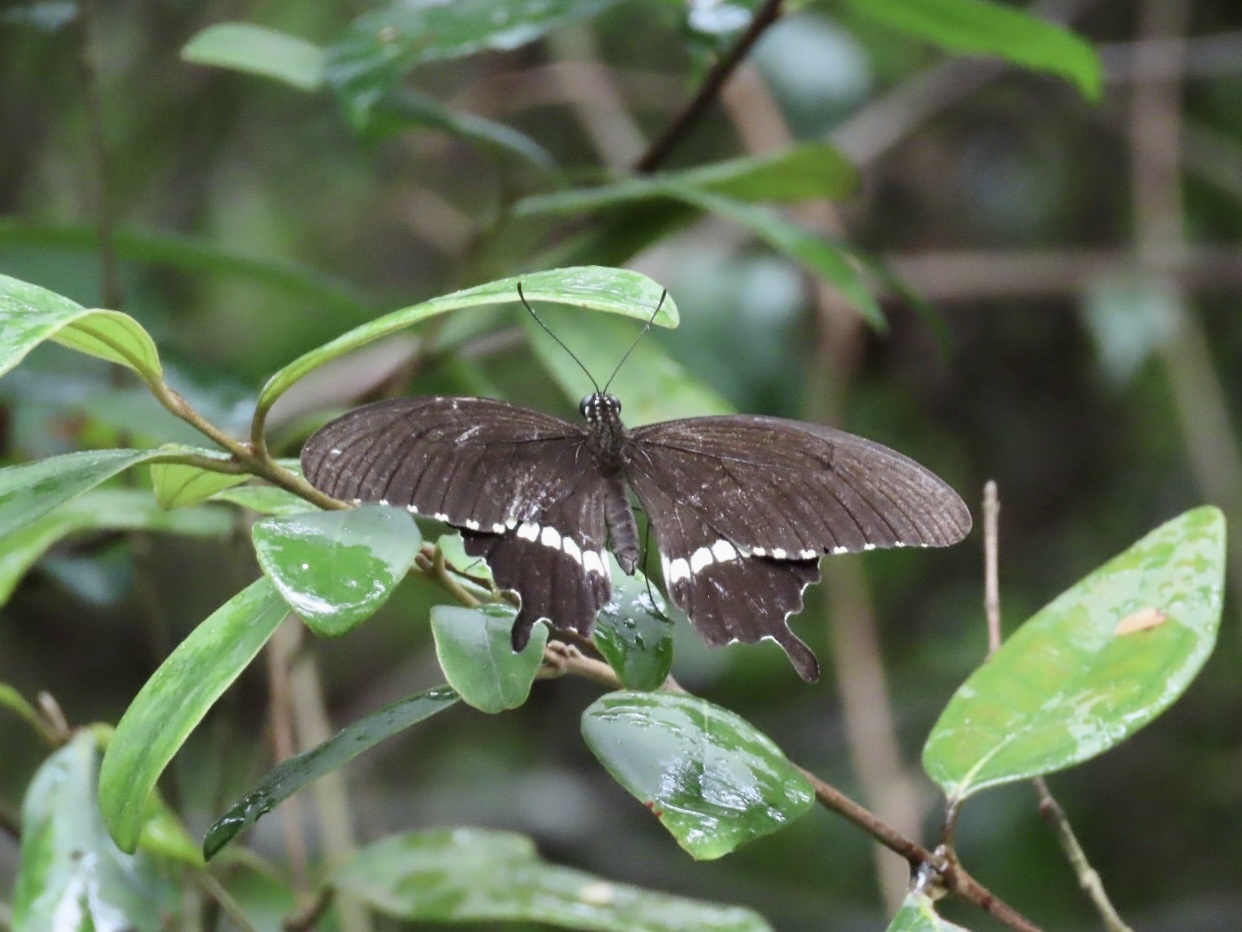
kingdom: Animalia
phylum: Arthropoda
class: Insecta
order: Lepidoptera
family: Papilionidae
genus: Papilio
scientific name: Papilio polytes
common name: Common mormon
